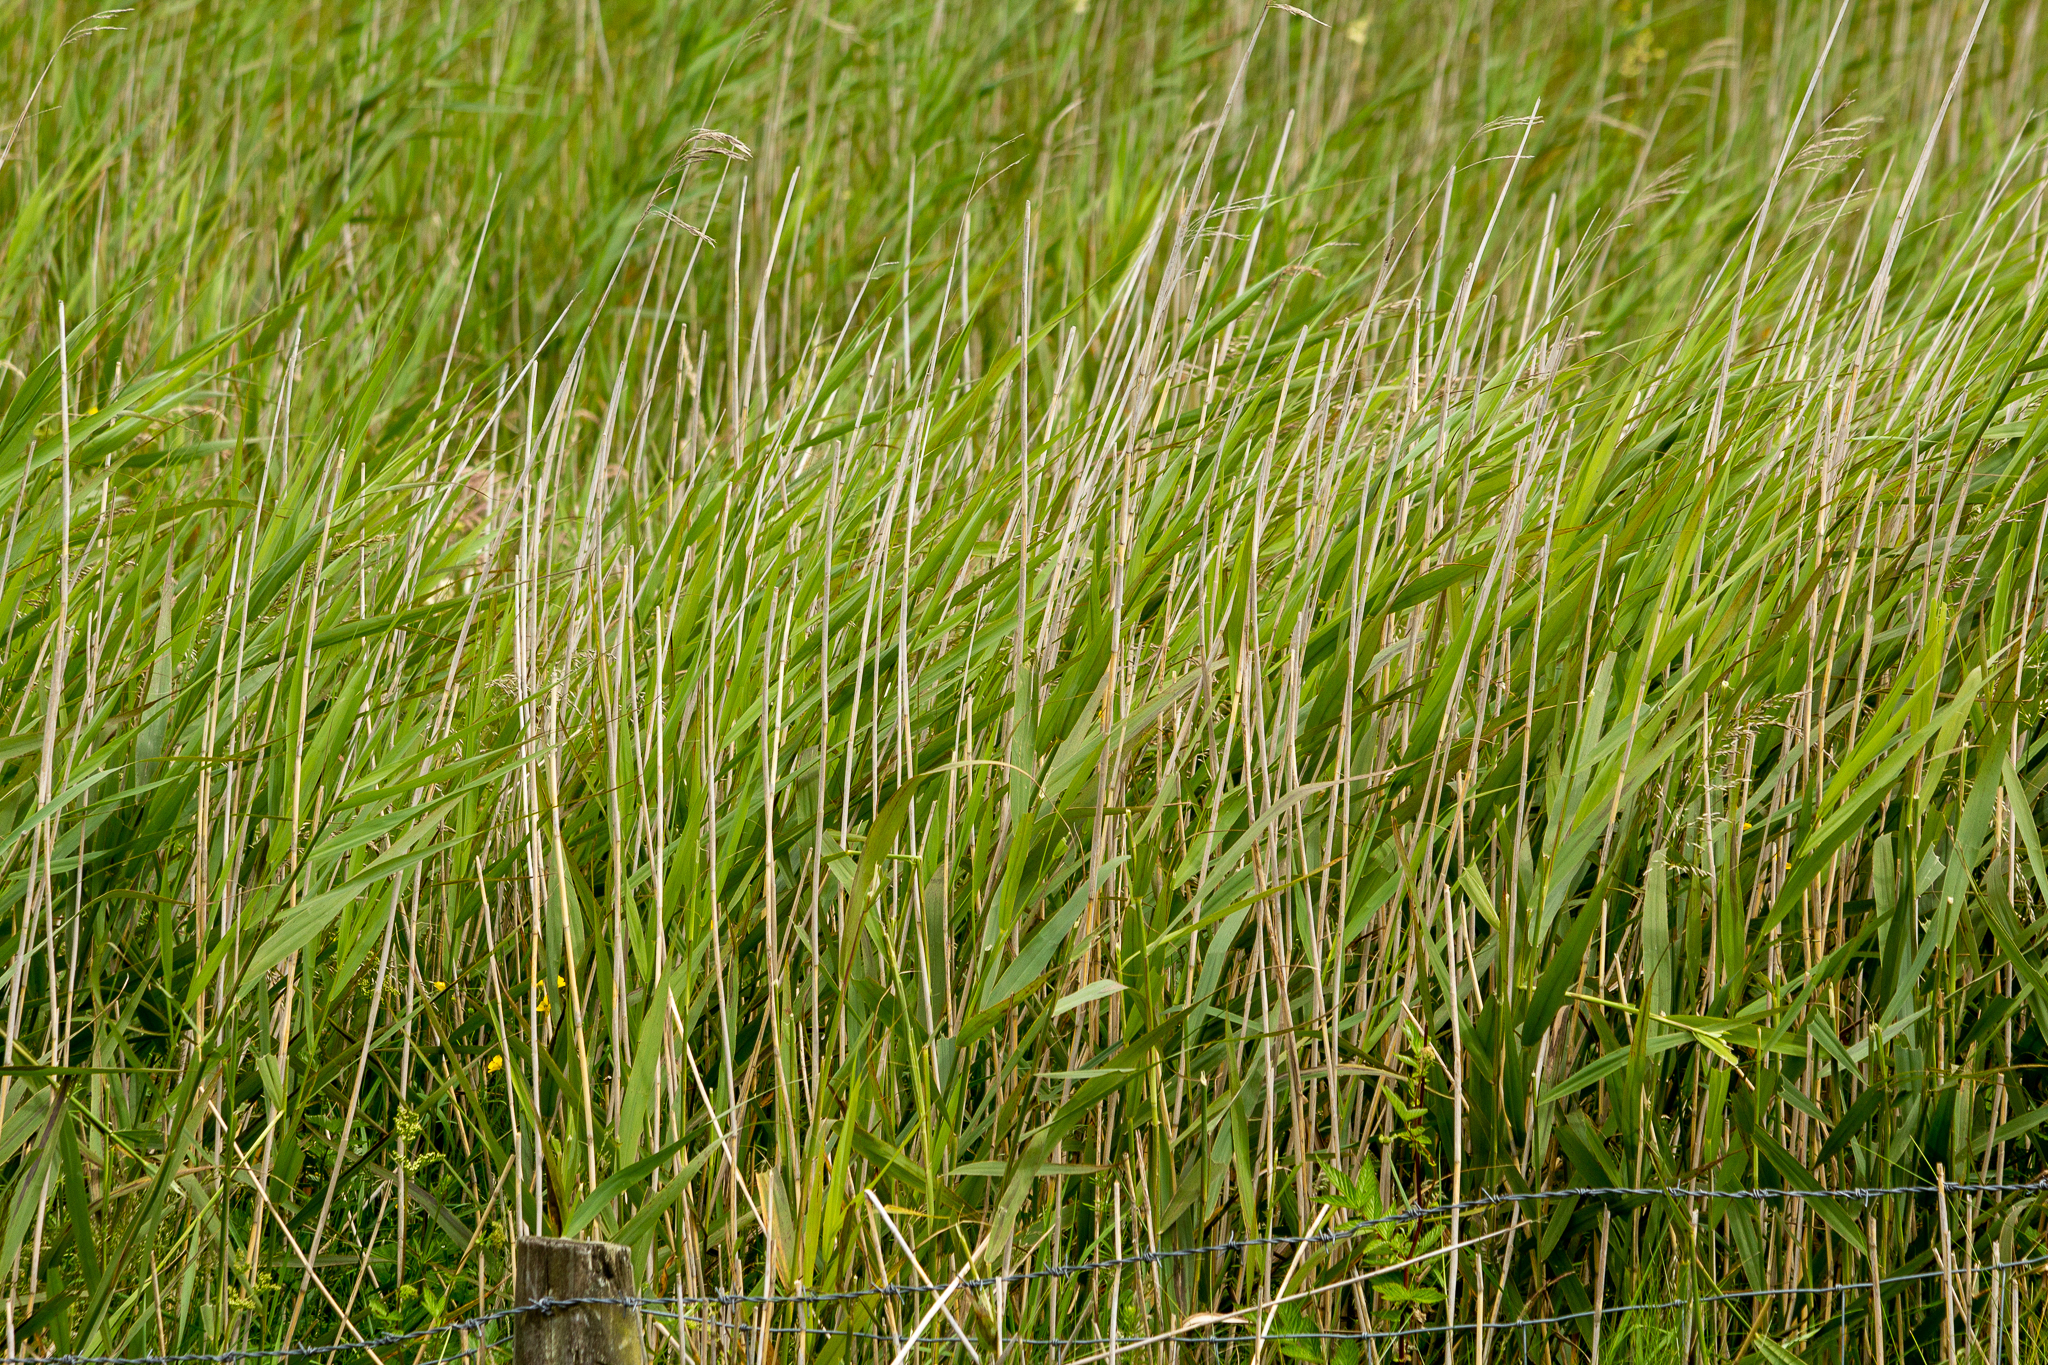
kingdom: Plantae
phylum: Tracheophyta
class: Liliopsida
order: Poales
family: Poaceae
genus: Phragmites
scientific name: Phragmites australis
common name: Common reed
